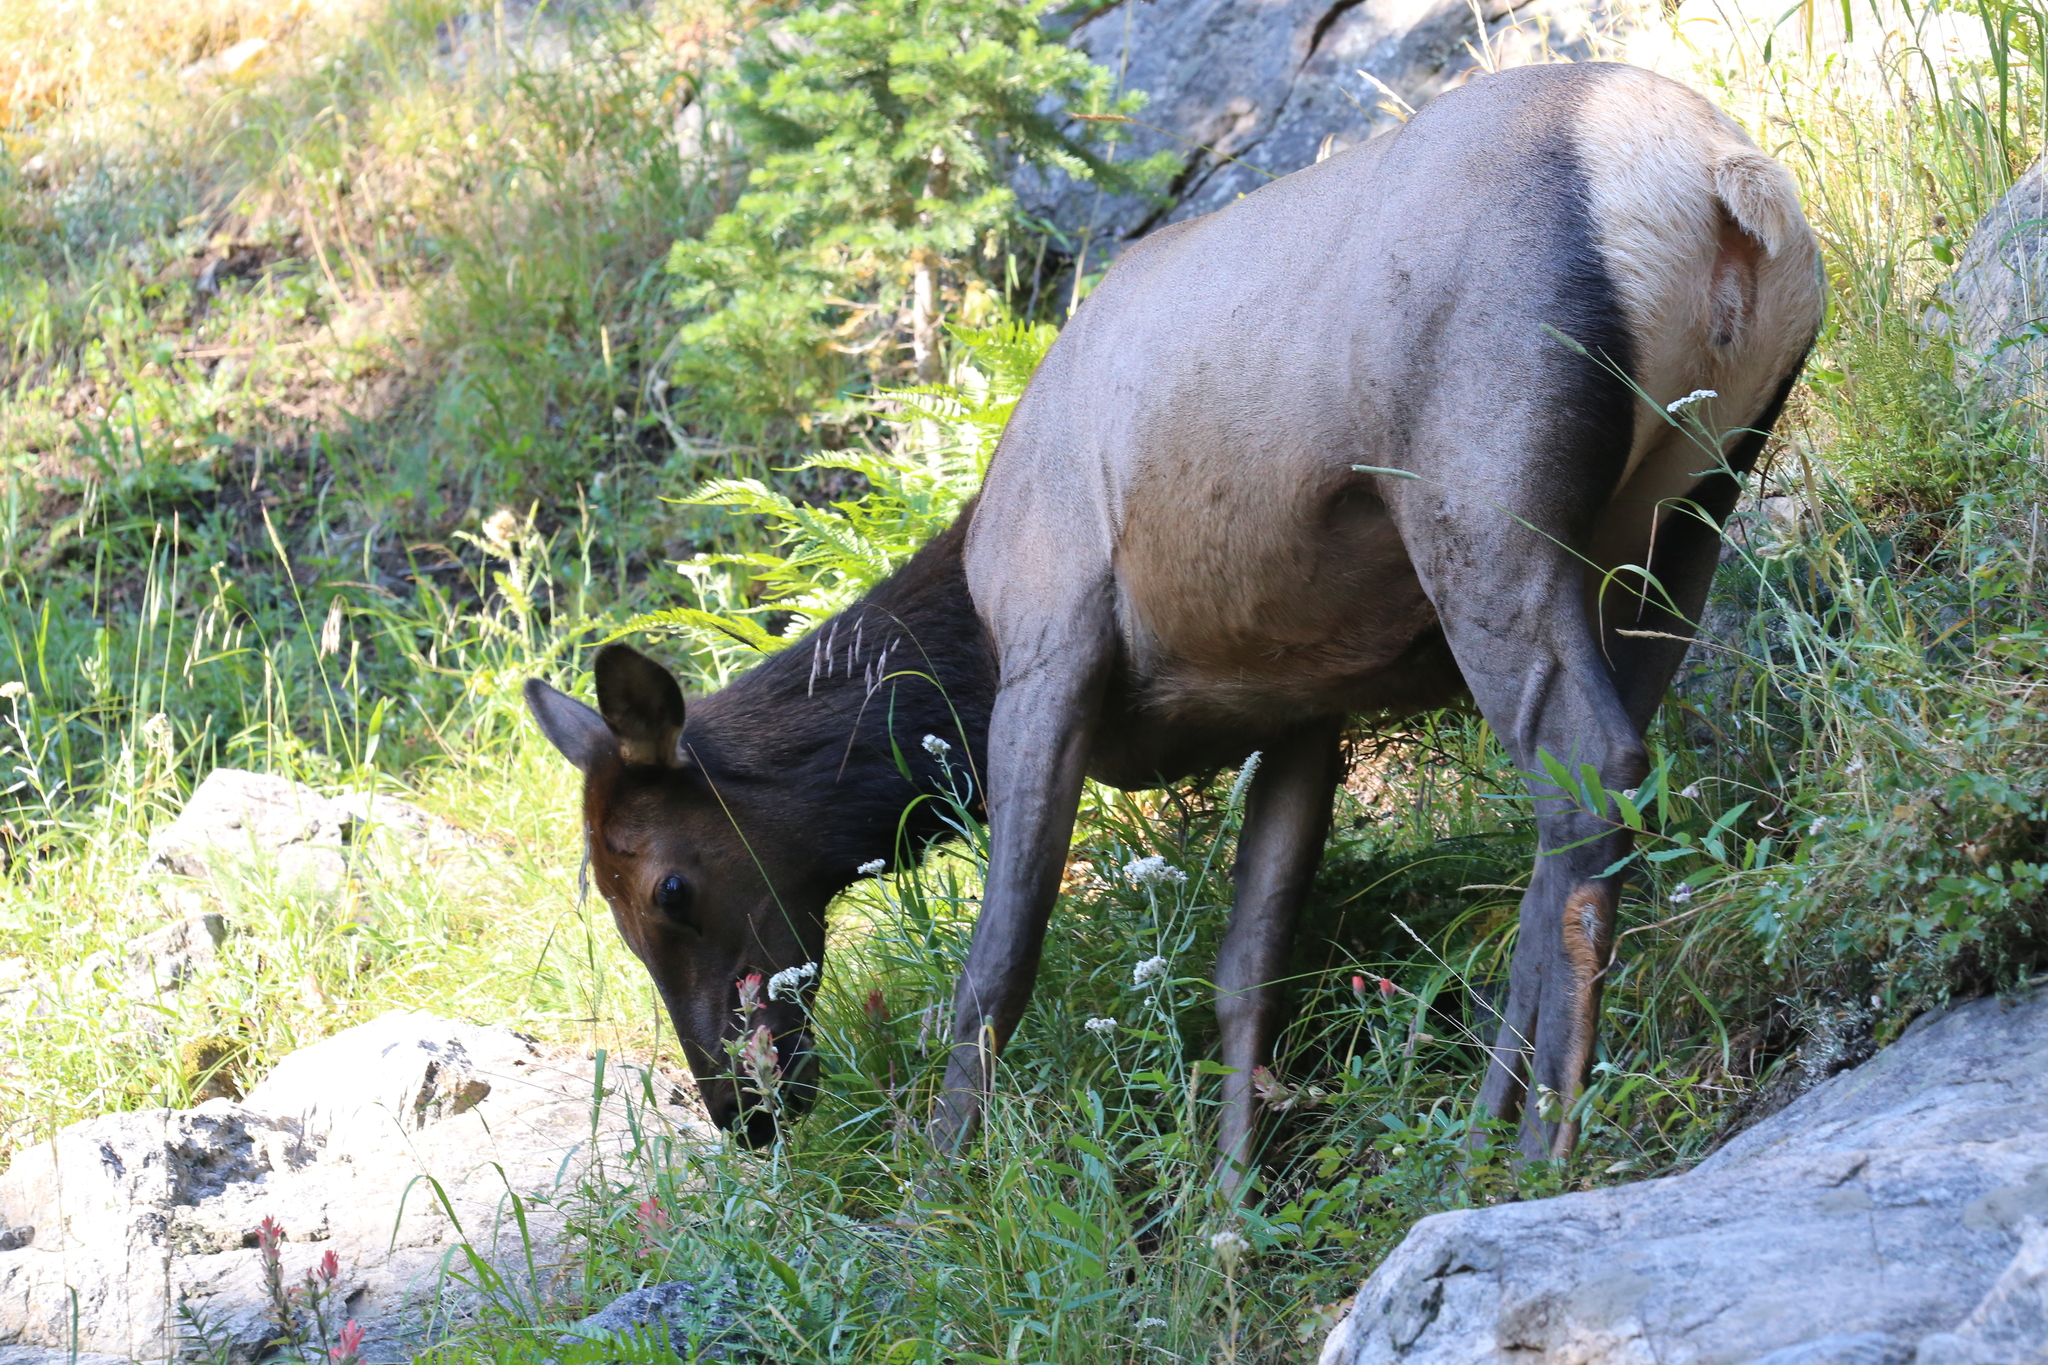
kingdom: Animalia
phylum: Chordata
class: Mammalia
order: Artiodactyla
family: Cervidae
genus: Cervus
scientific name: Cervus elaphus
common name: Red deer
